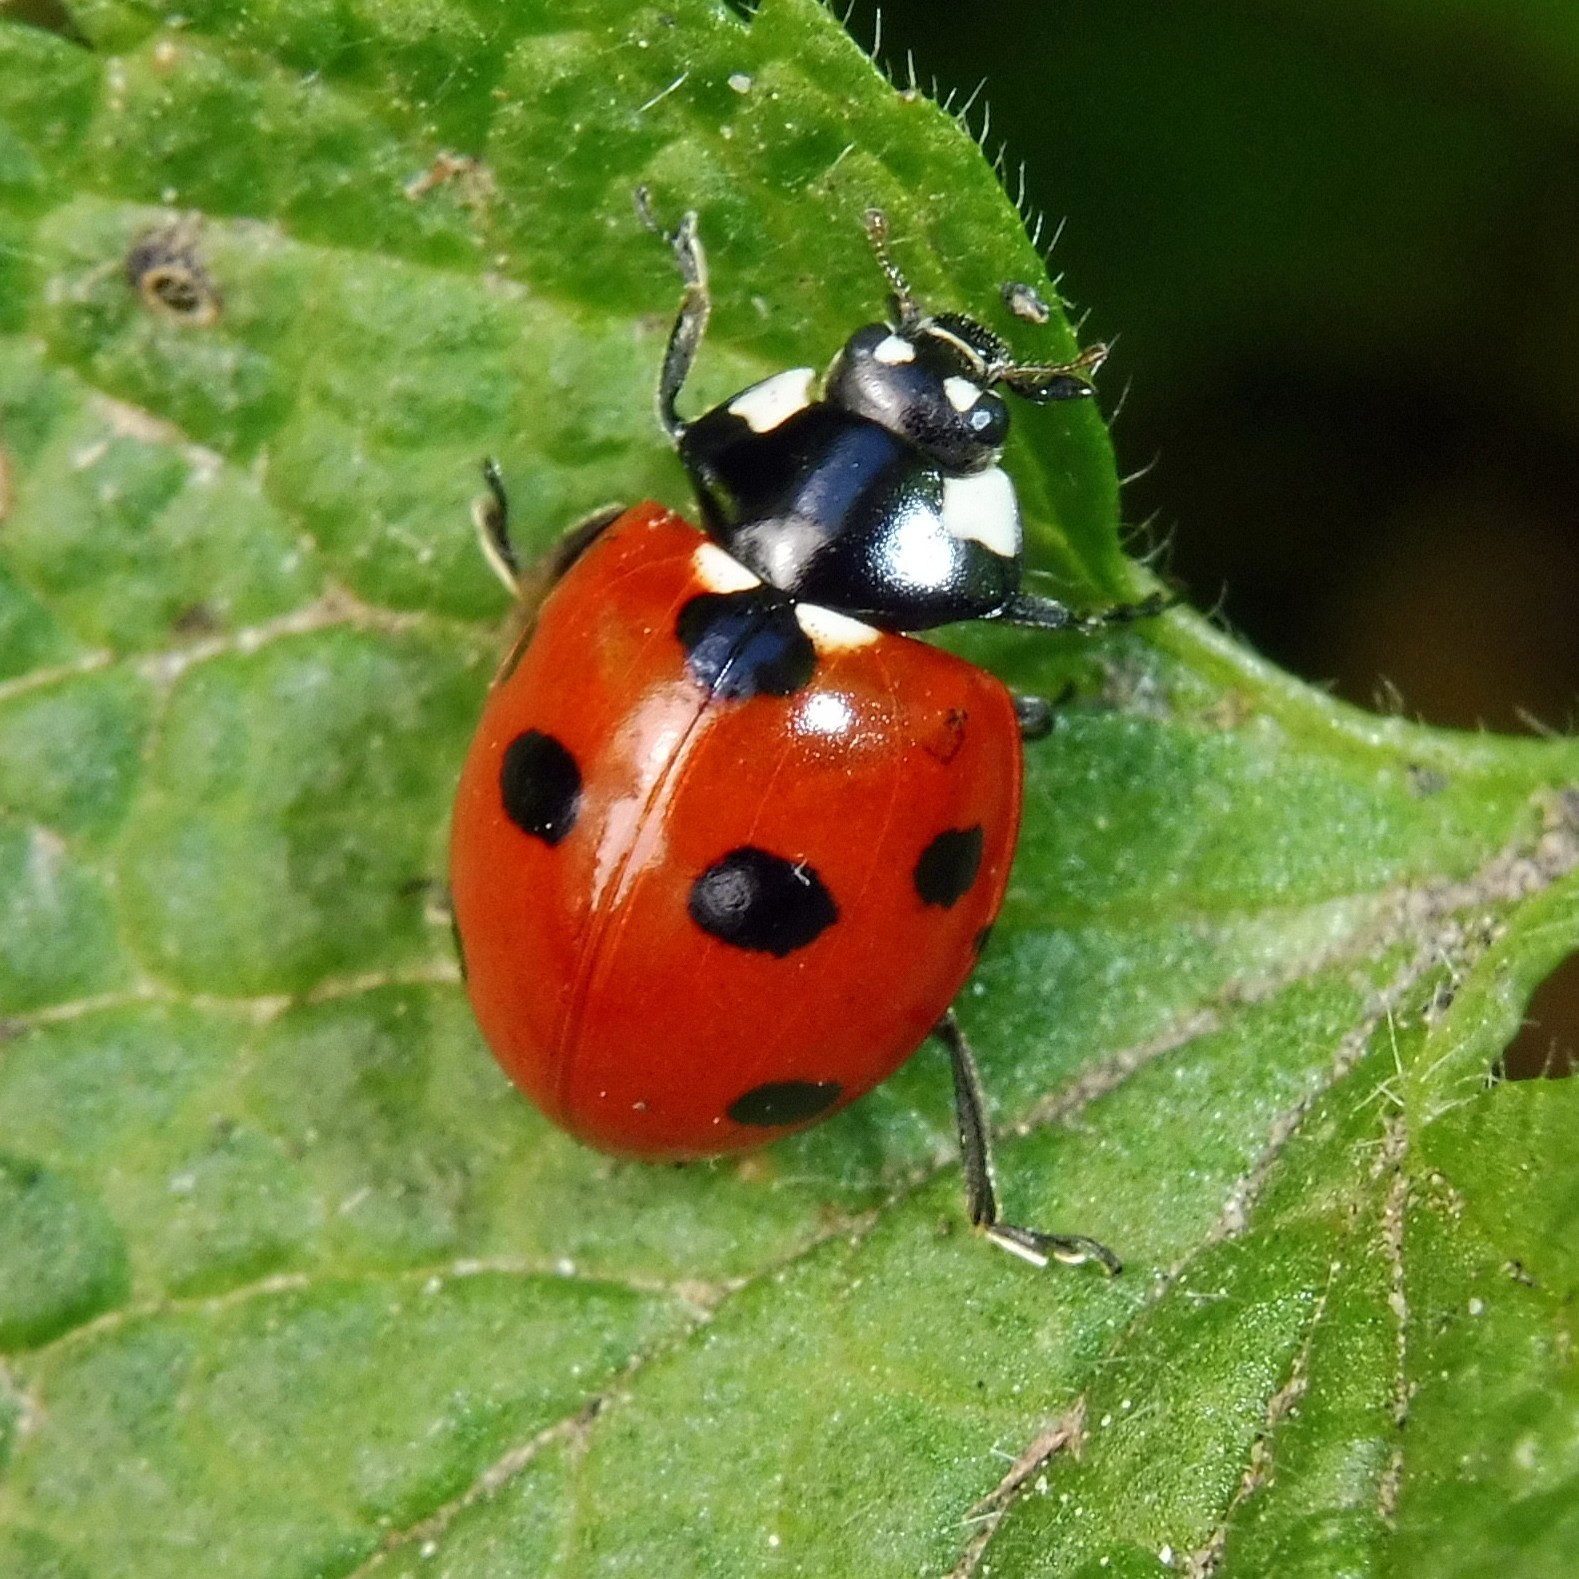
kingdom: Animalia
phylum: Arthropoda
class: Insecta
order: Coleoptera
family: Coccinellidae
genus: Coccinella
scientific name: Coccinella septempunctata
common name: Sevenspotted lady beetle
